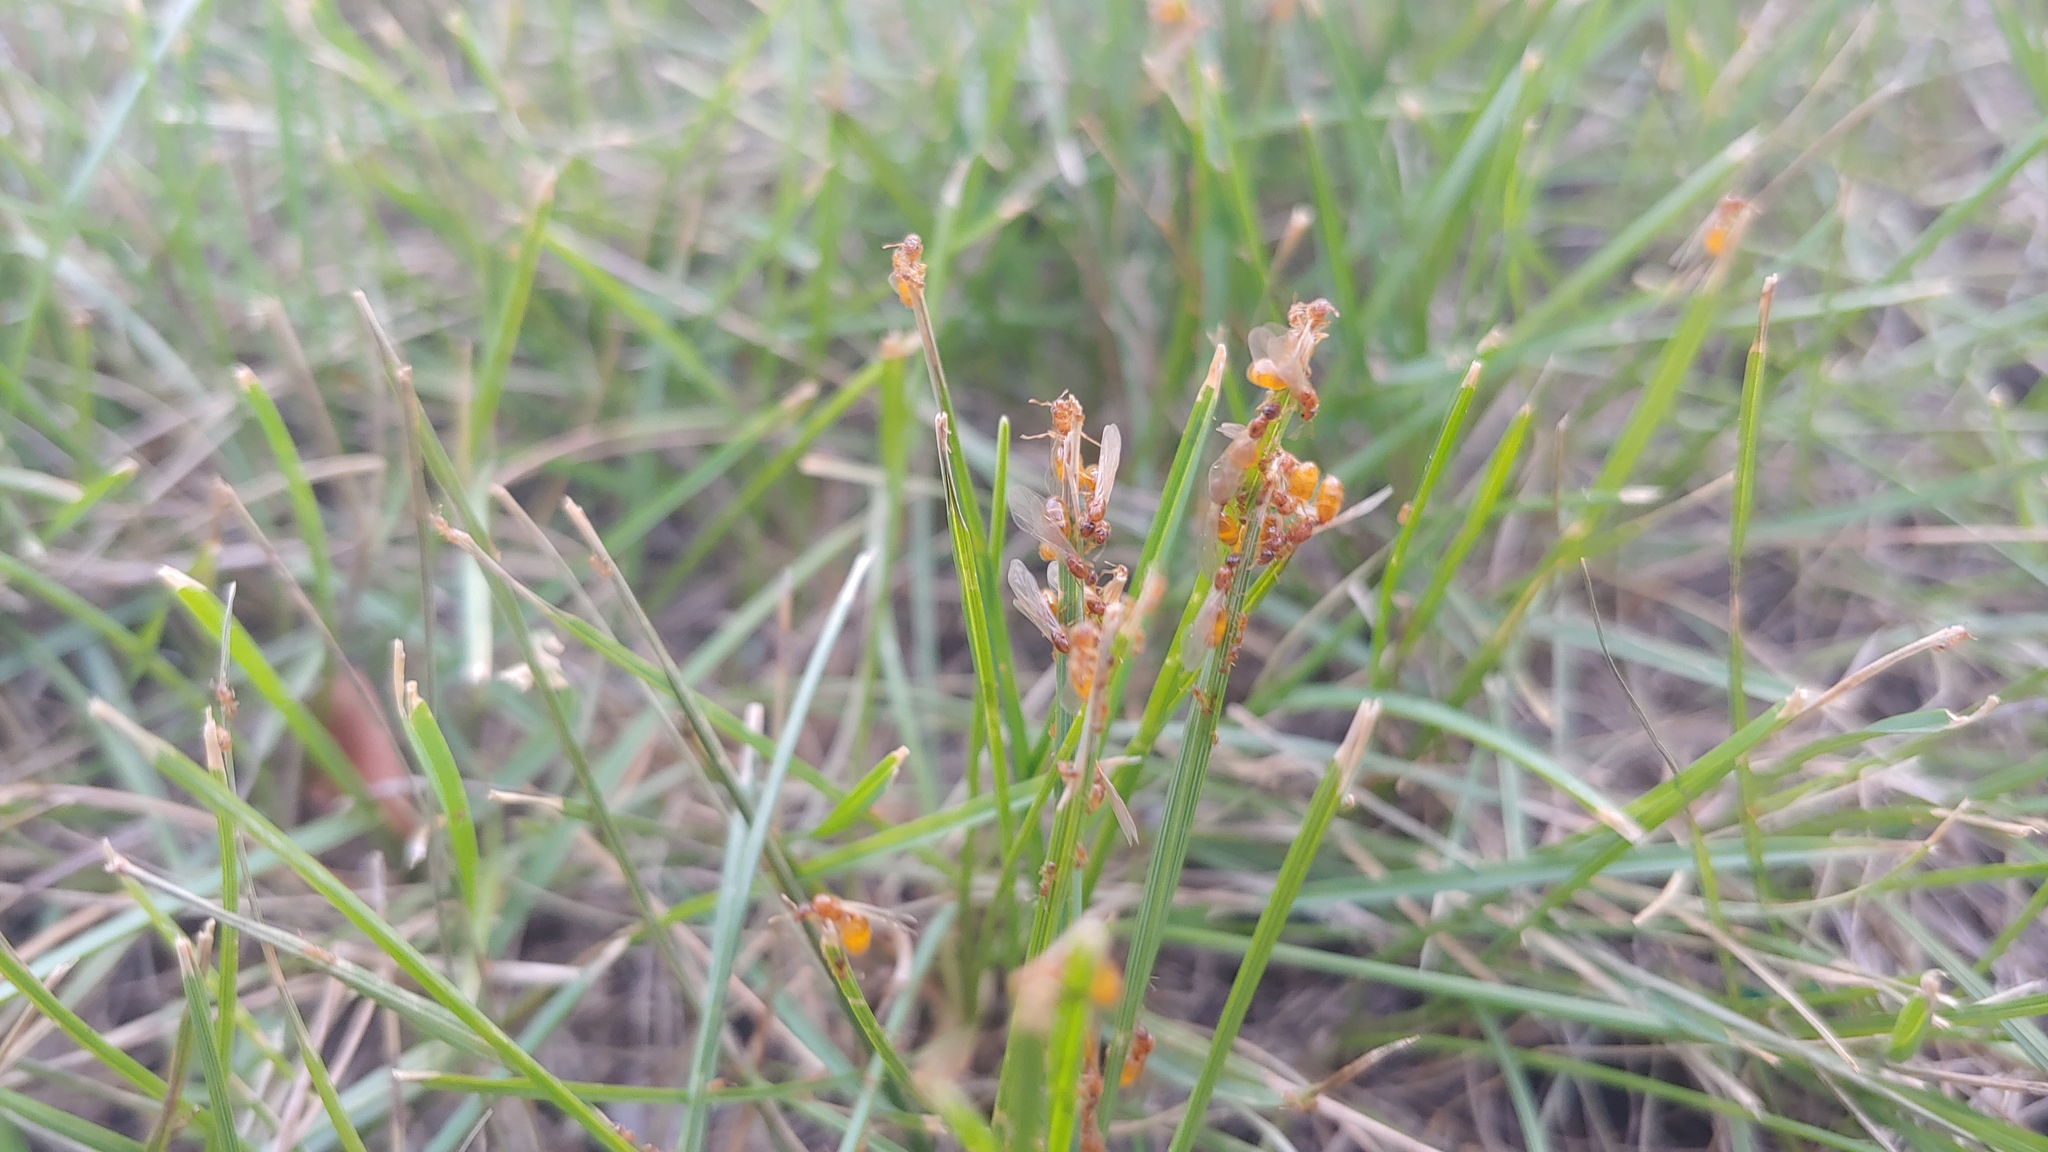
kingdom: Animalia
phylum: Arthropoda
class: Insecta
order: Hymenoptera
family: Formicidae
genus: Solenopsis
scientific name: Solenopsis molesta
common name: Thief ant
